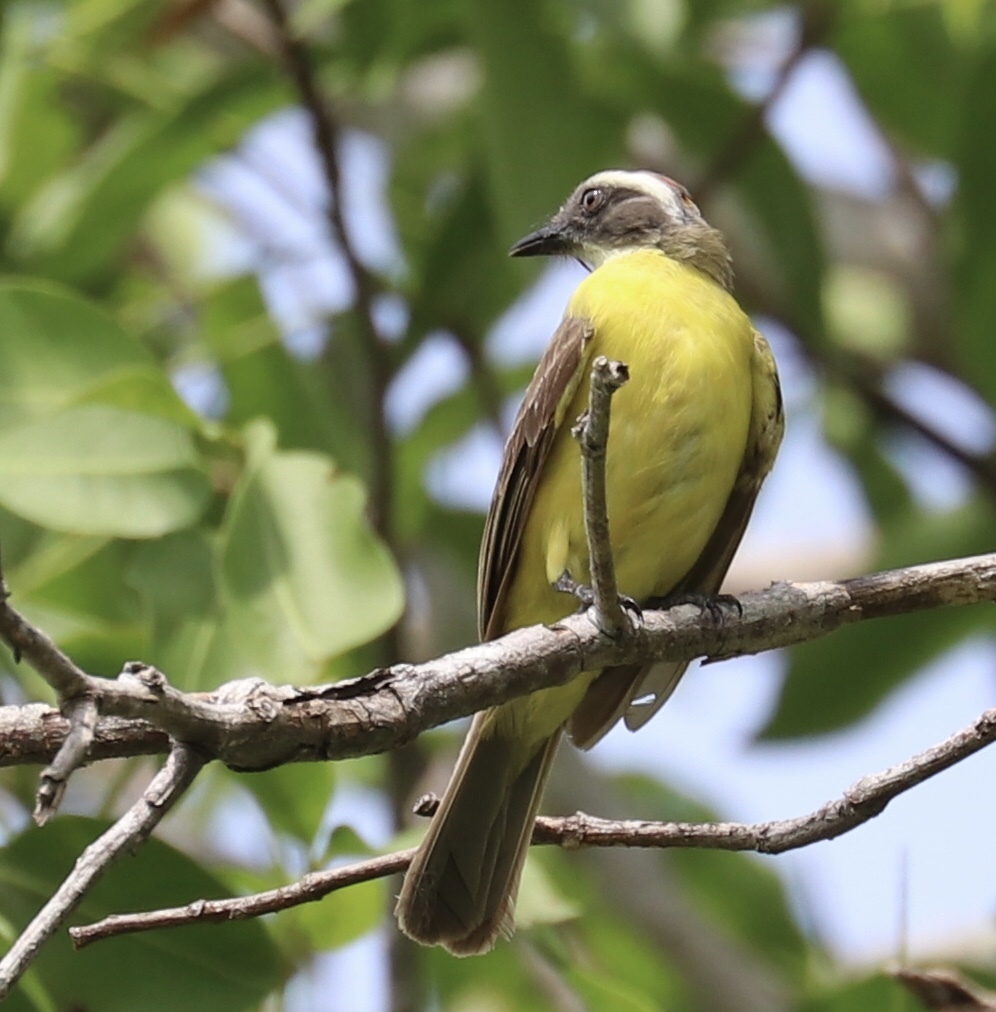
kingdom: Animalia
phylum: Chordata
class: Aves
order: Passeriformes
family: Tyrannidae
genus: Myiozetetes
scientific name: Myiozetetes similis
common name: Social flycatcher
